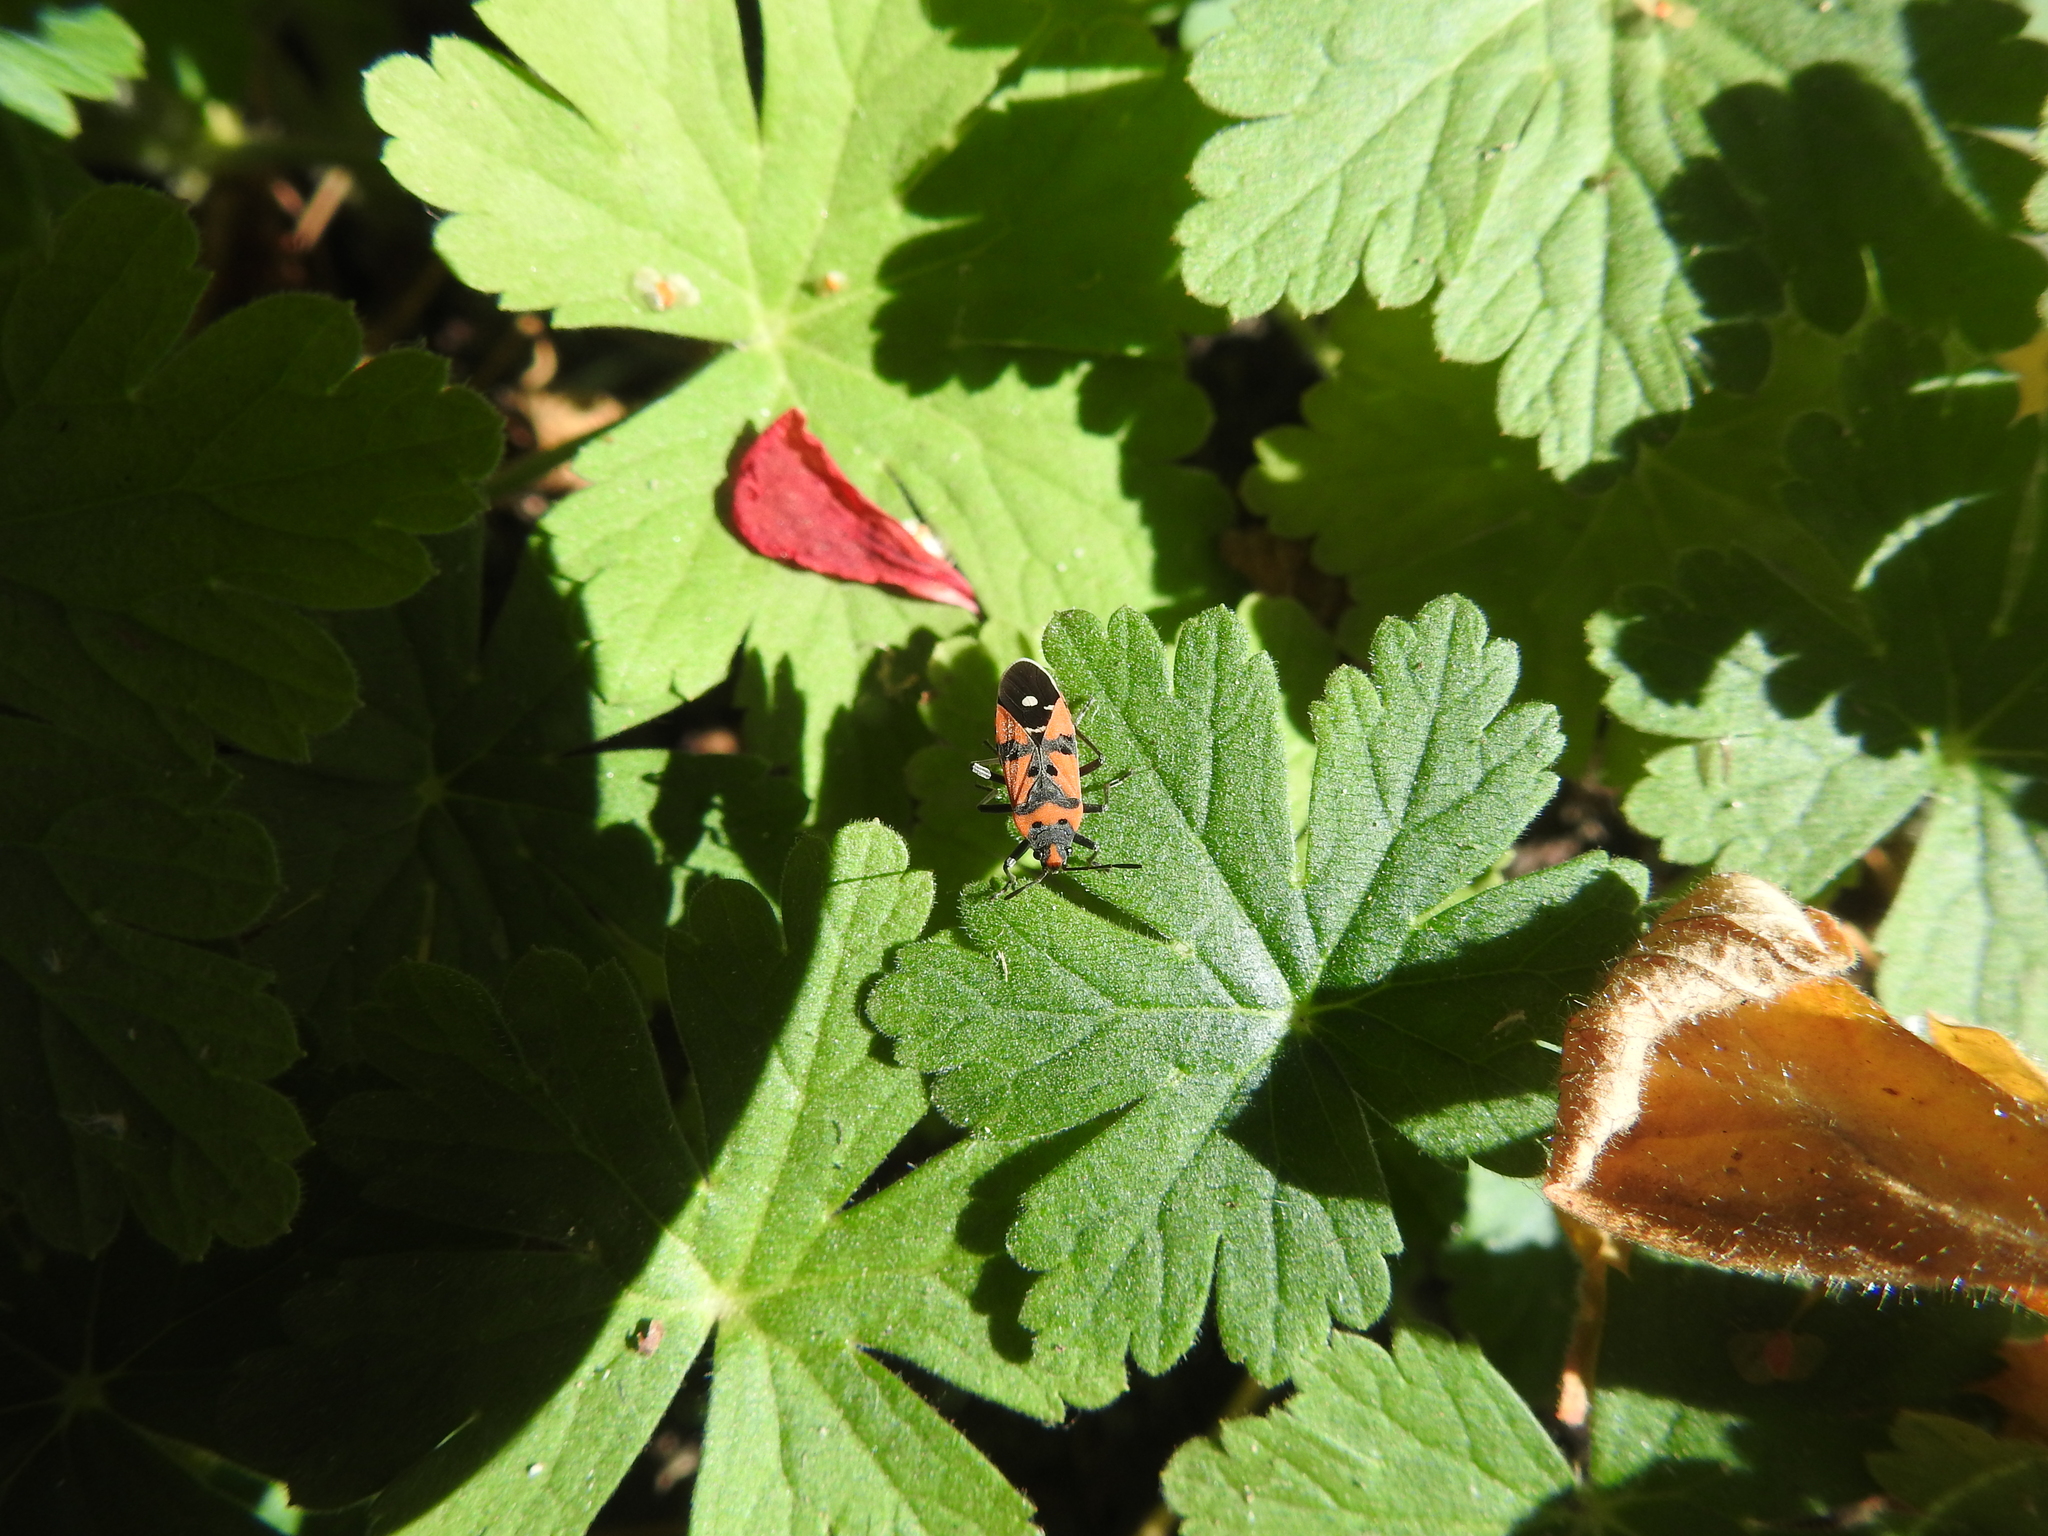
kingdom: Animalia
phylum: Arthropoda
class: Insecta
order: Hemiptera
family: Lygaeidae
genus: Lygaeus
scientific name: Lygaeus equestris
